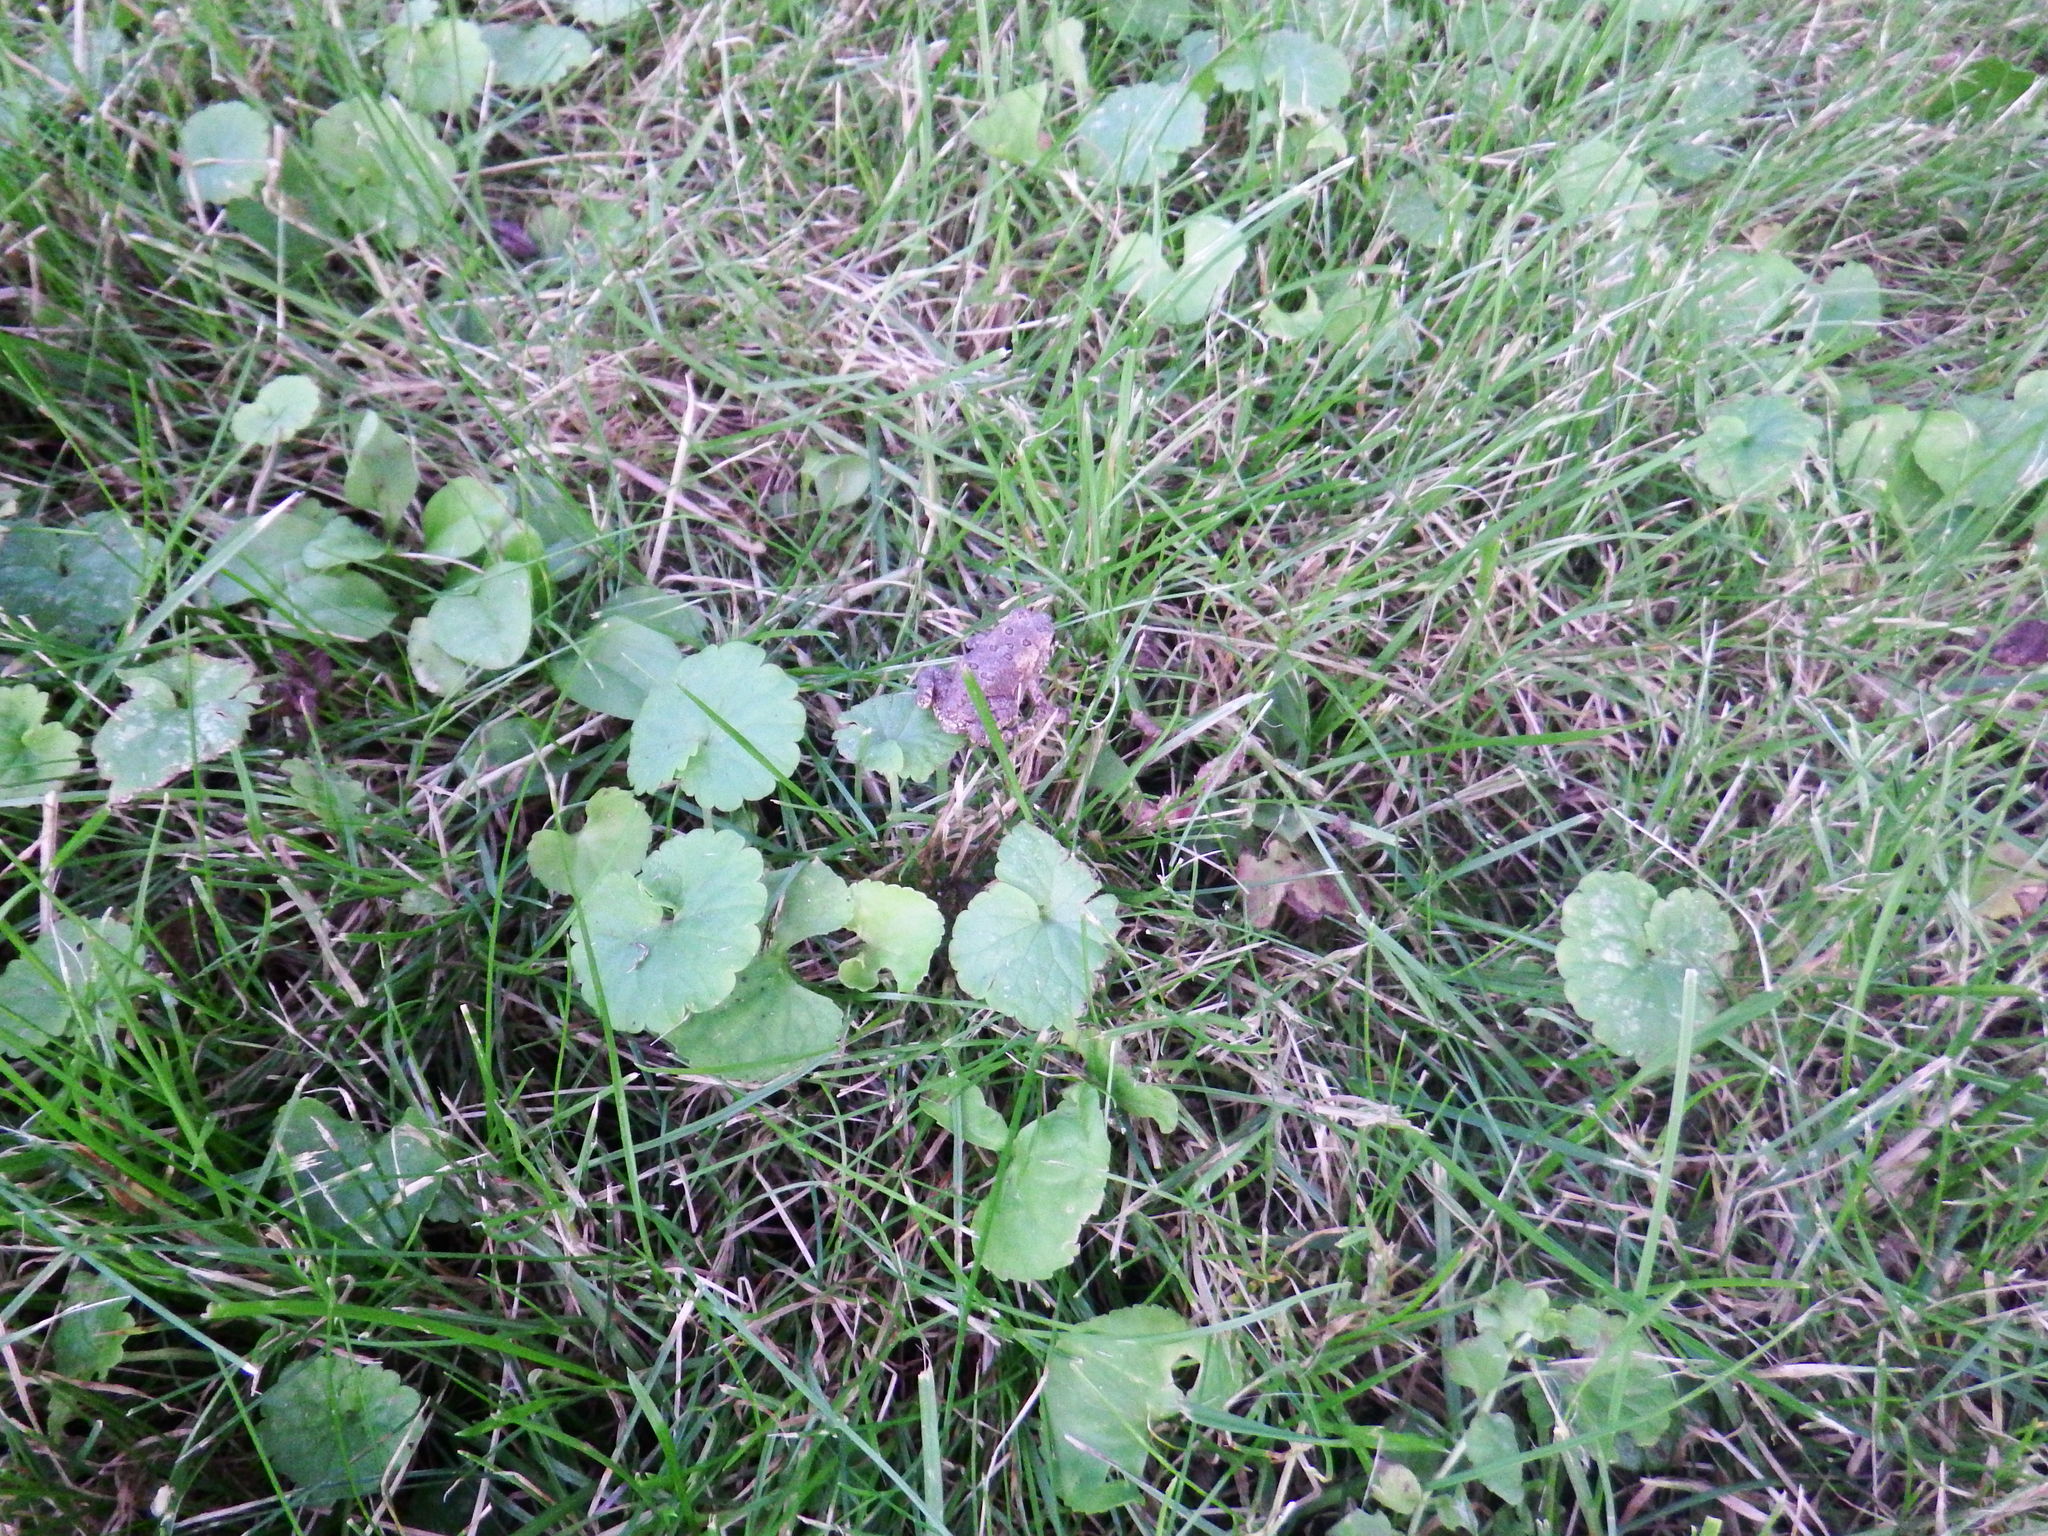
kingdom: Animalia
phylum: Chordata
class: Amphibia
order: Anura
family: Bufonidae
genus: Anaxyrus
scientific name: Anaxyrus americanus
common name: American toad
